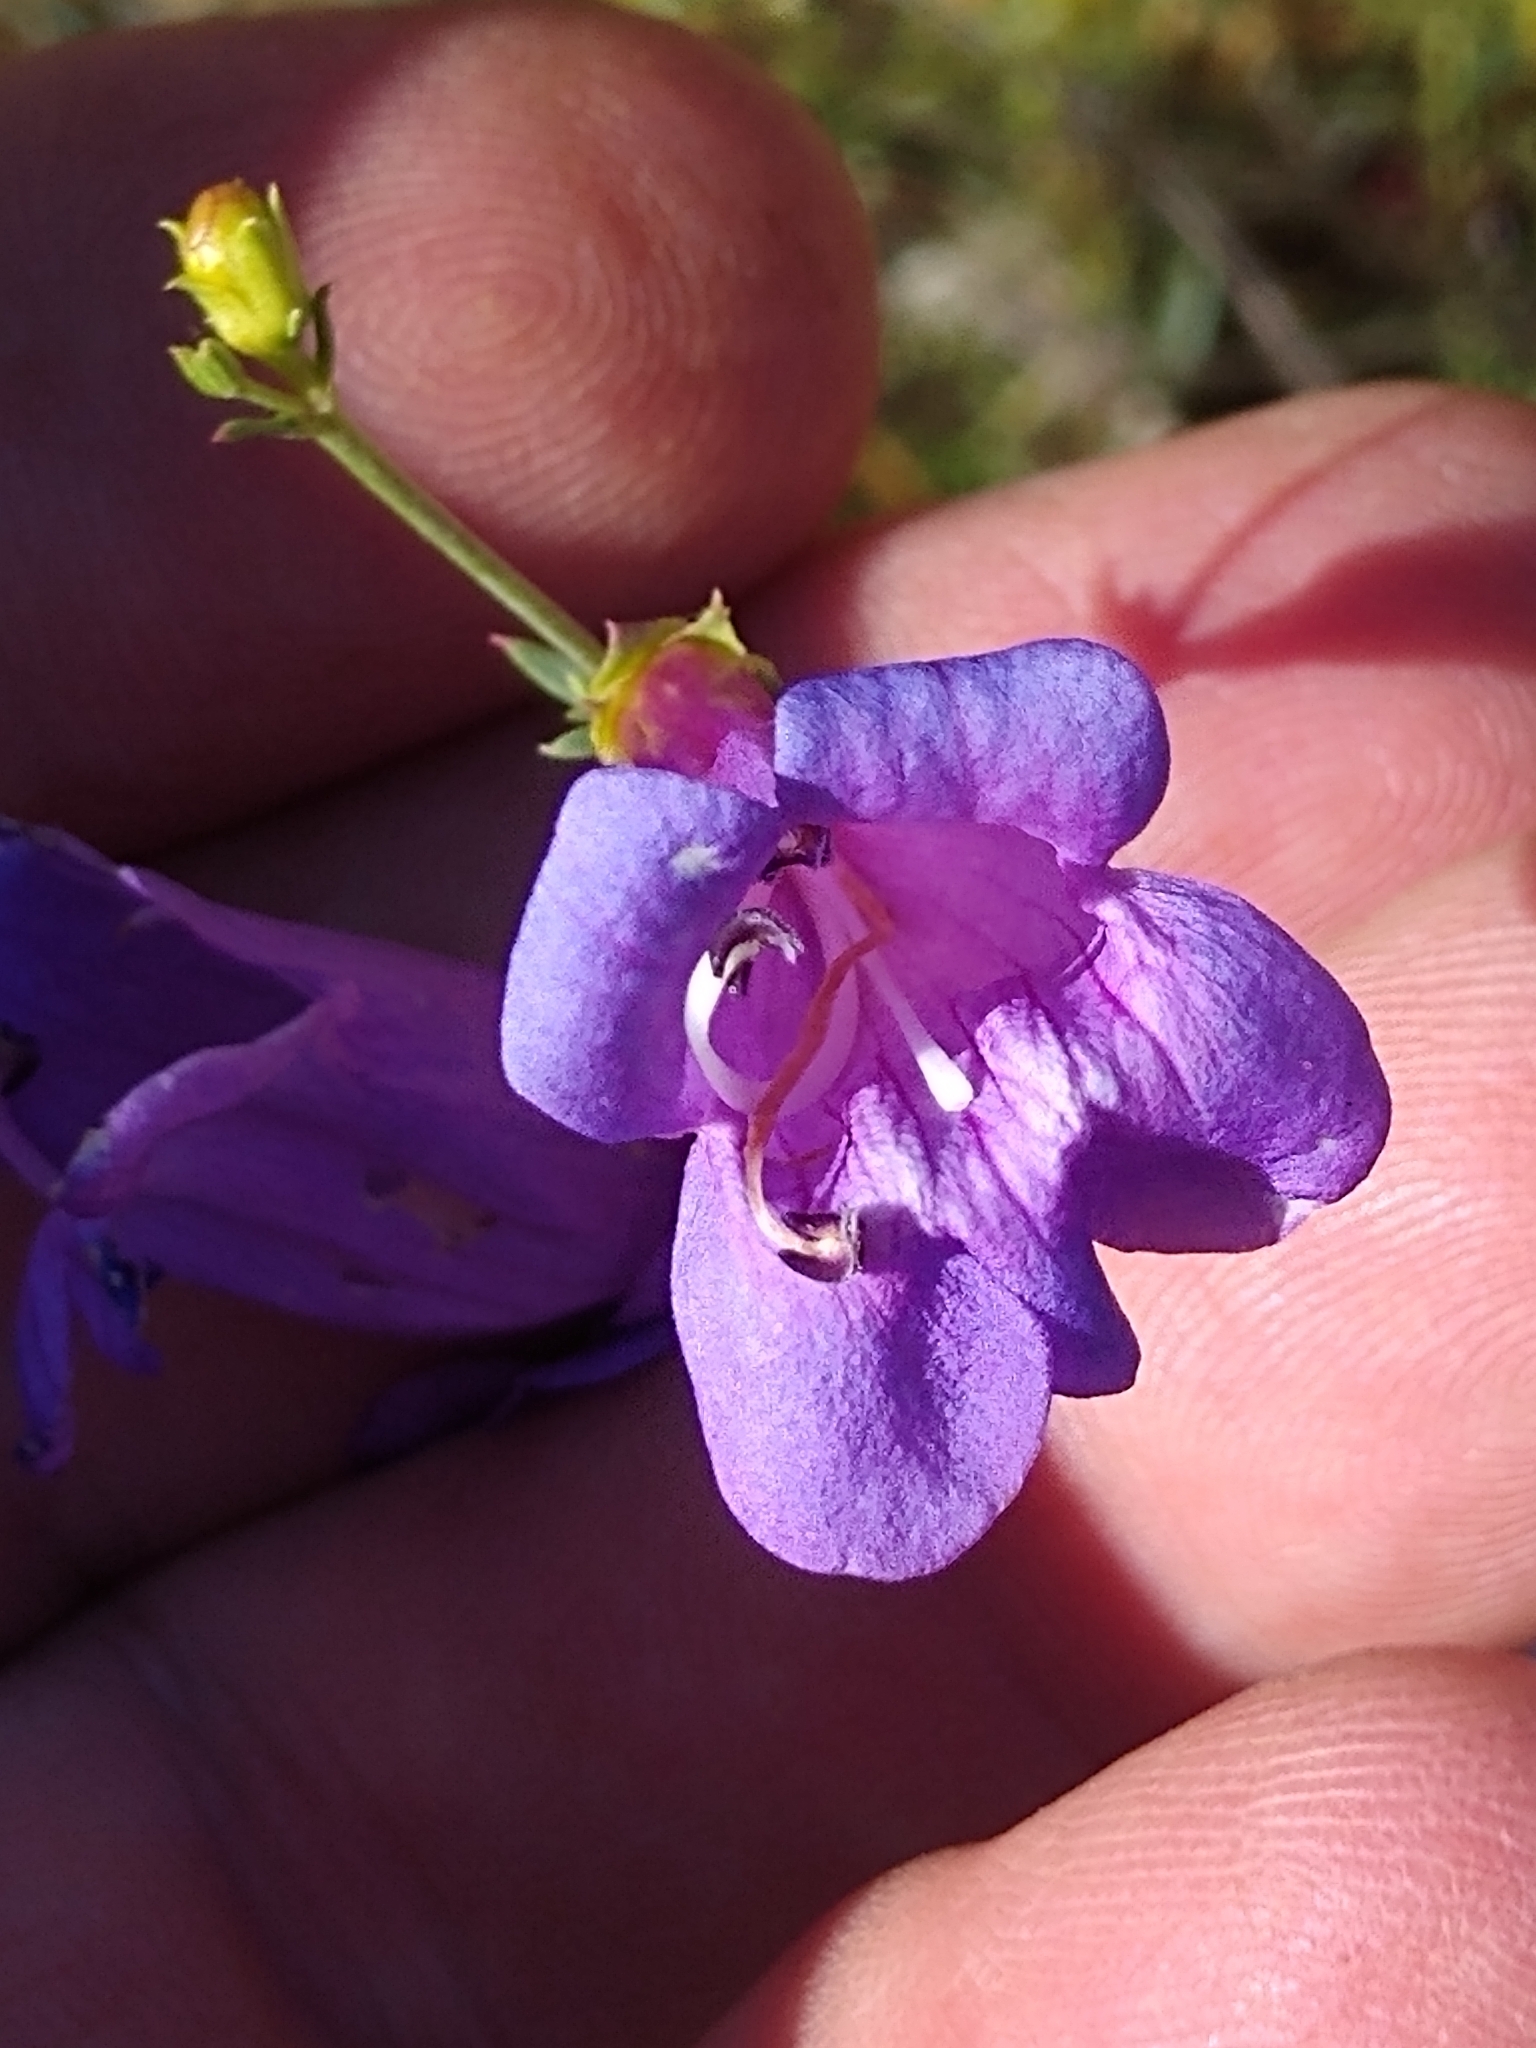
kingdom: Plantae
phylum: Tracheophyta
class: Magnoliopsida
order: Lamiales
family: Plantaginaceae
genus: Penstemon
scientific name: Penstemon heterophyllus
